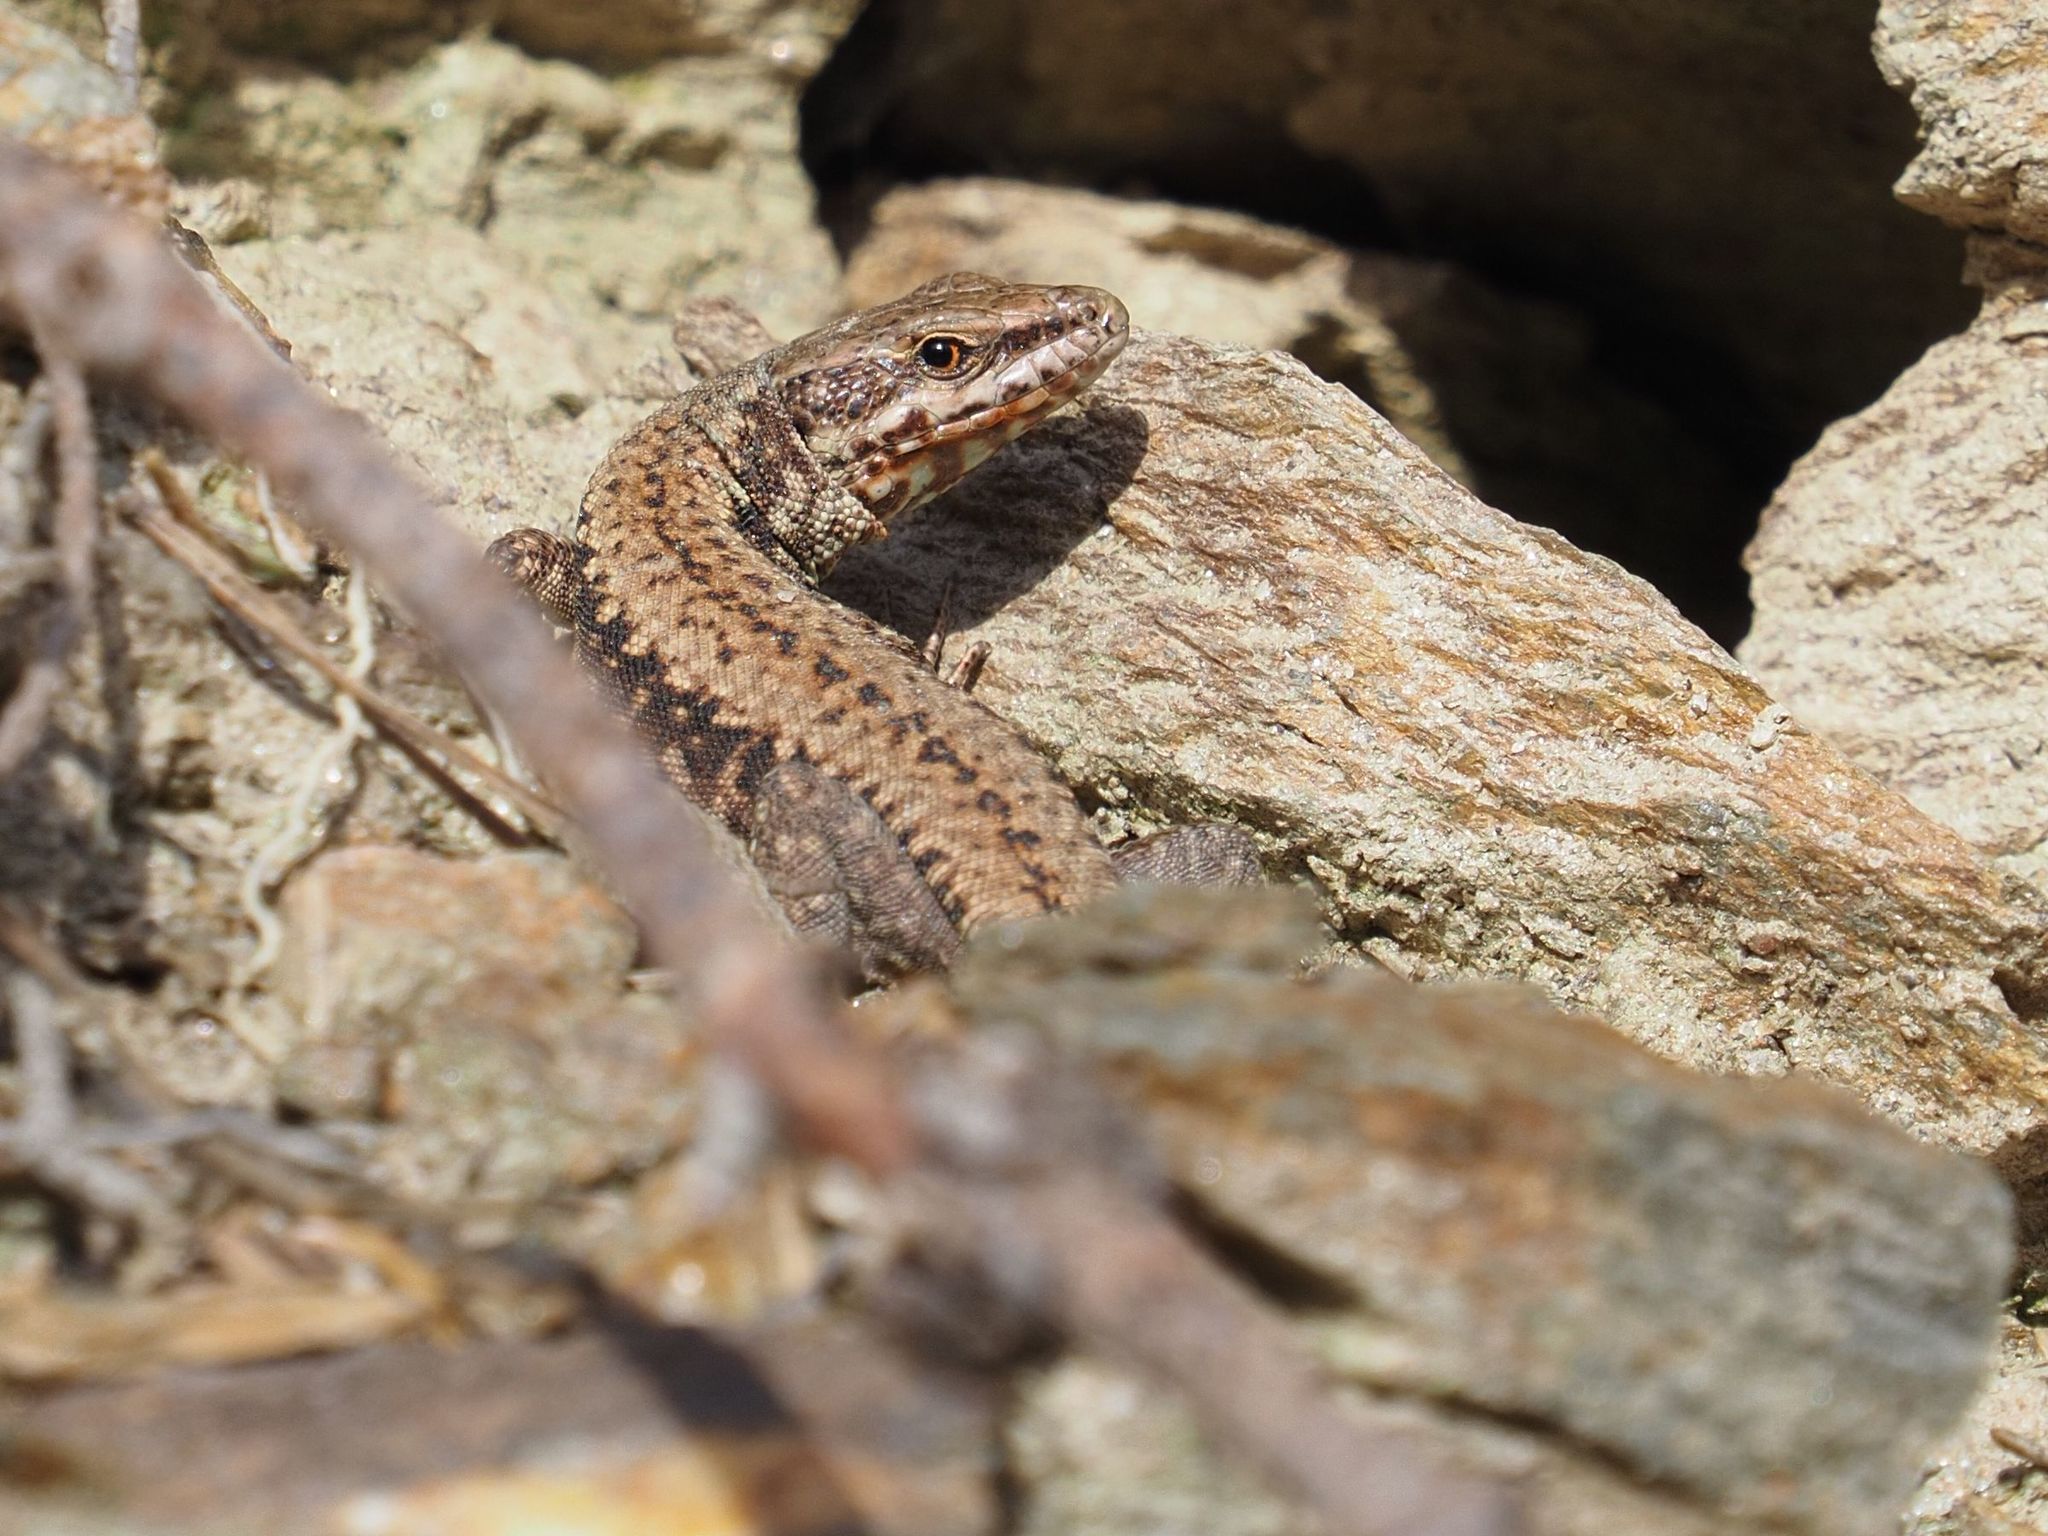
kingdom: Animalia
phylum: Chordata
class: Squamata
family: Lacertidae
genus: Podarcis
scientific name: Podarcis muralis
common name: Common wall lizard
